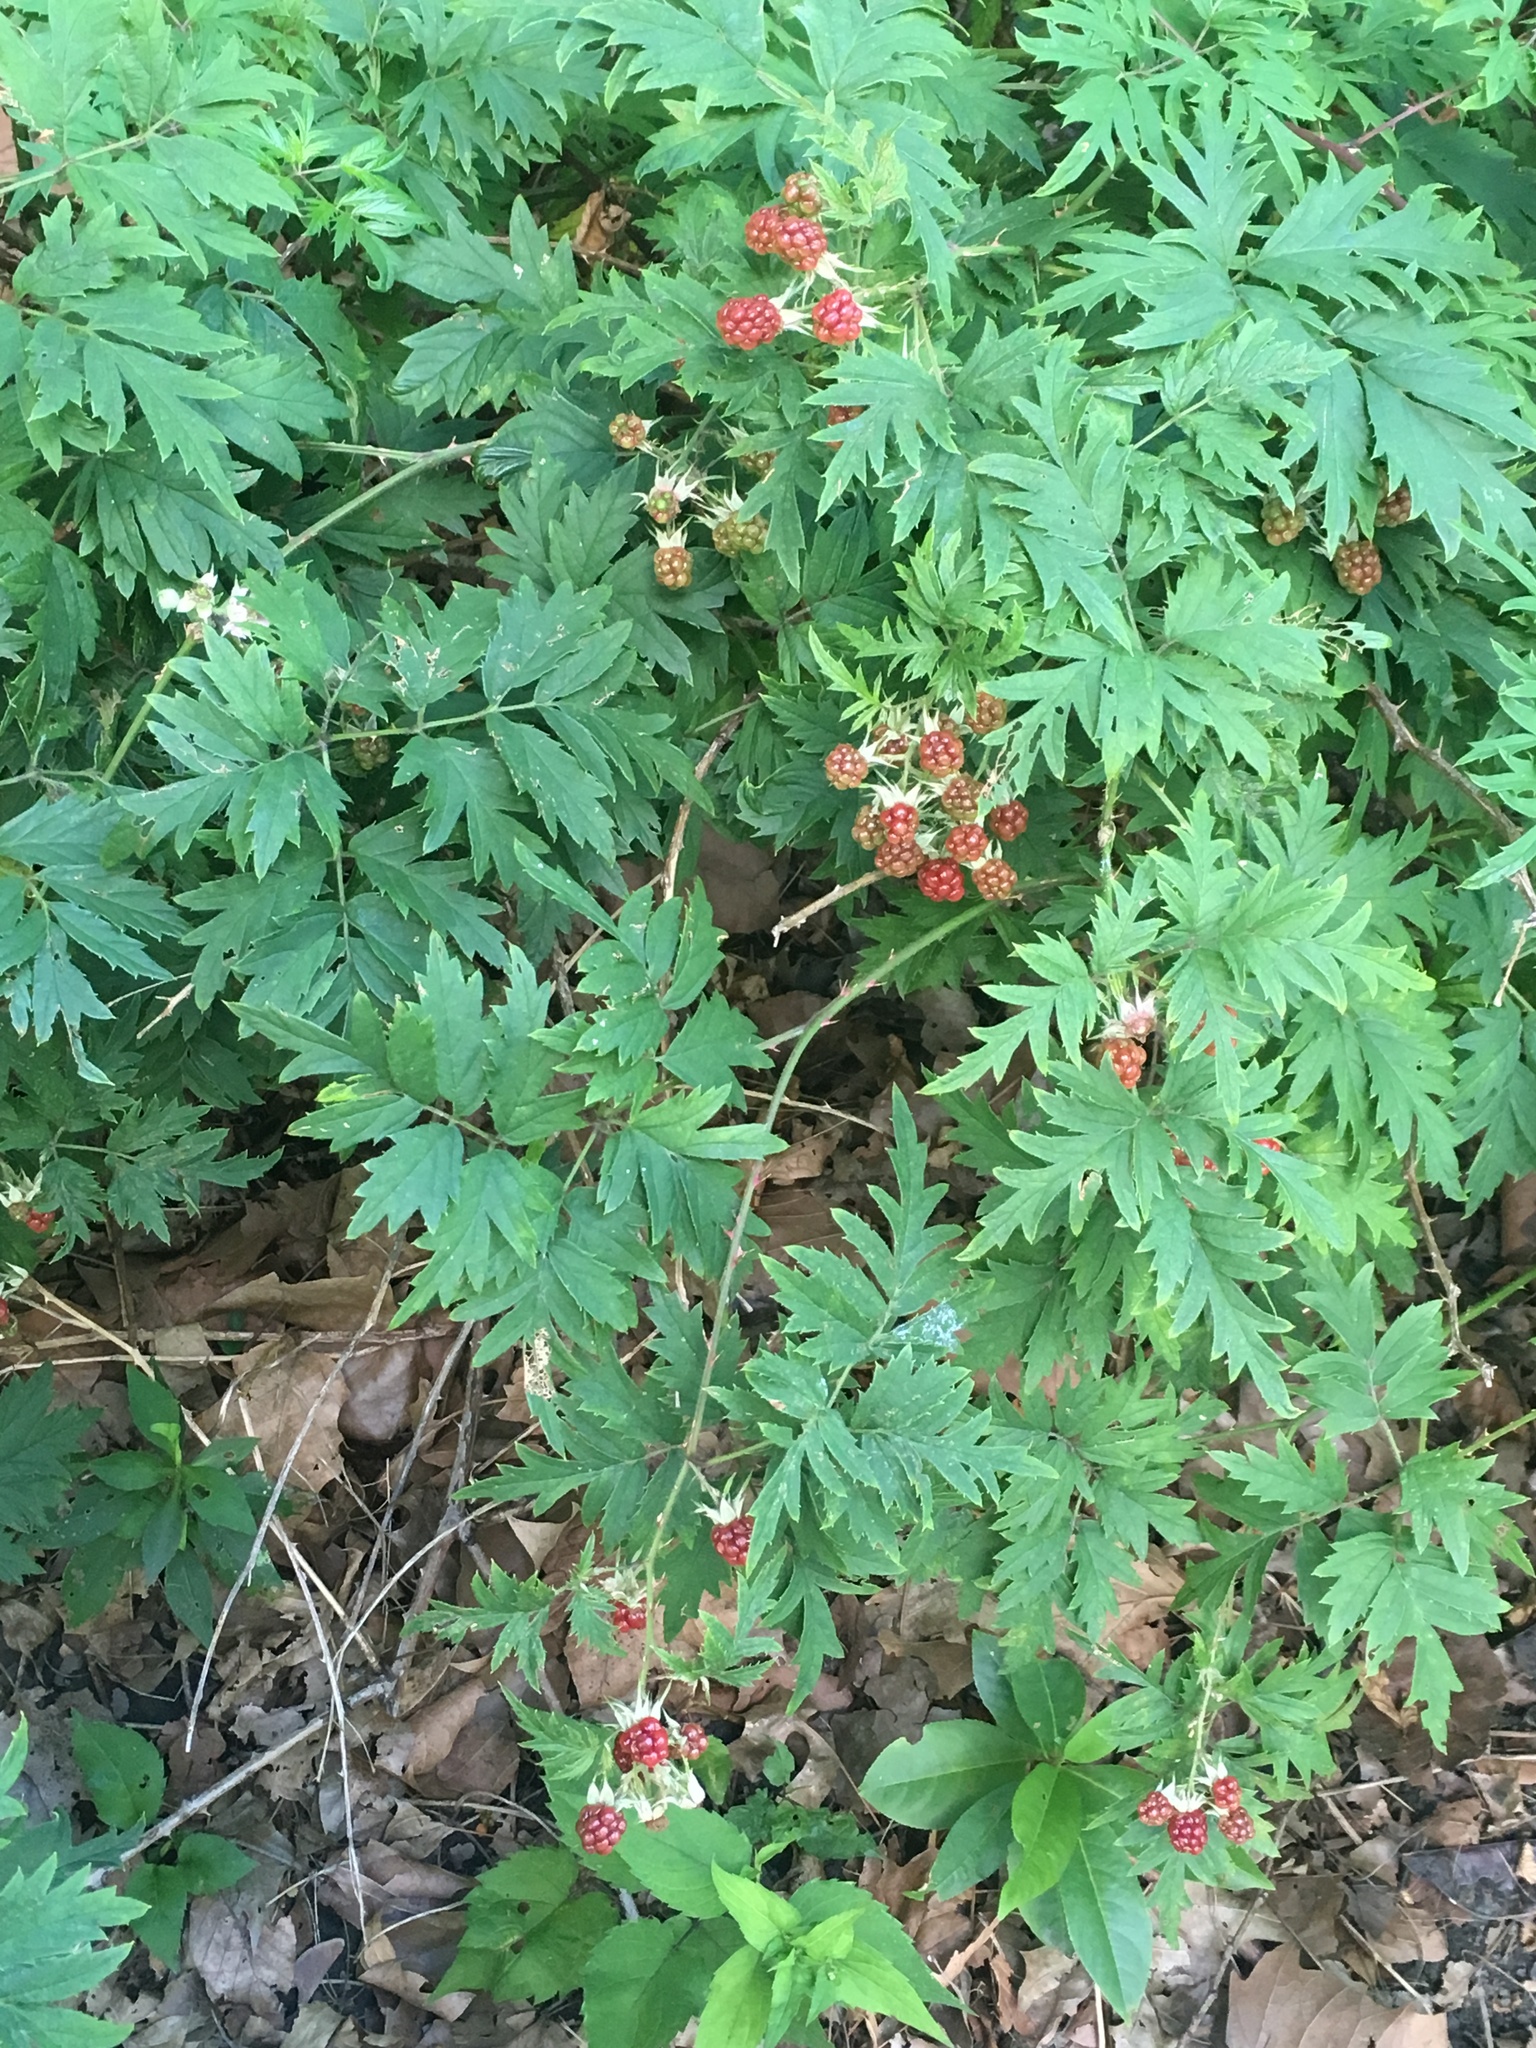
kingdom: Plantae
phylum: Tracheophyta
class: Magnoliopsida
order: Rosales
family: Rosaceae
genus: Rubus
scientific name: Rubus laciniatus
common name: Evergreen blackberry
